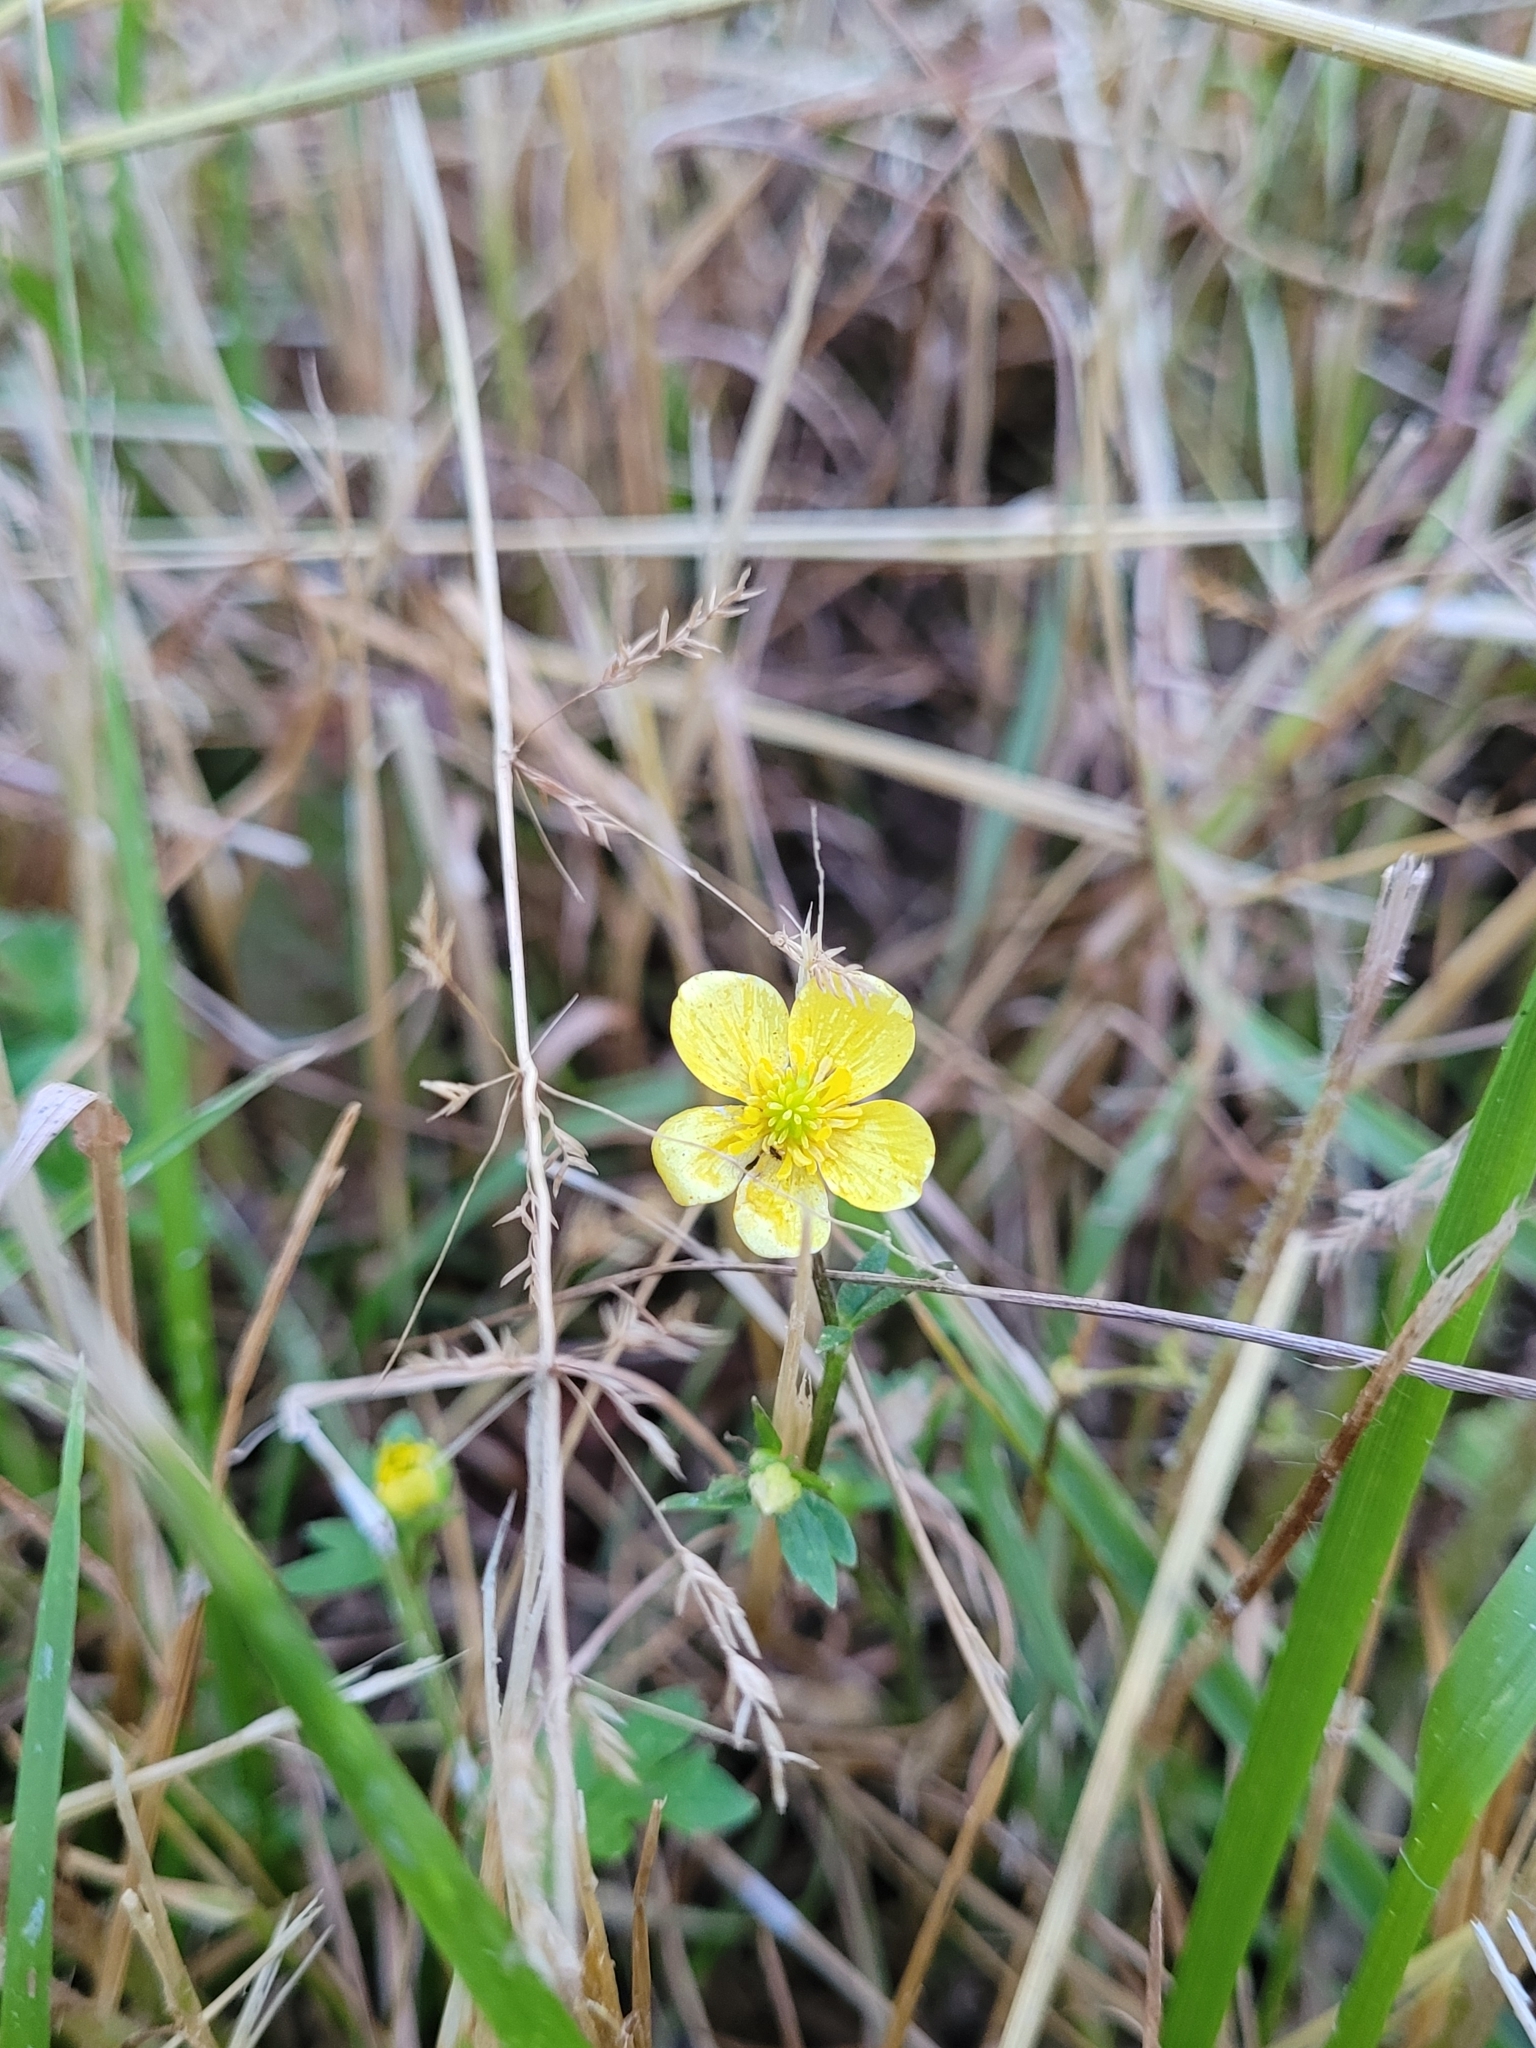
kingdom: Plantae
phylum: Tracheophyta
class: Magnoliopsida
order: Ranunculales
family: Ranunculaceae
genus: Ranunculus
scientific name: Ranunculus hispidus
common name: Bristly buttercup
